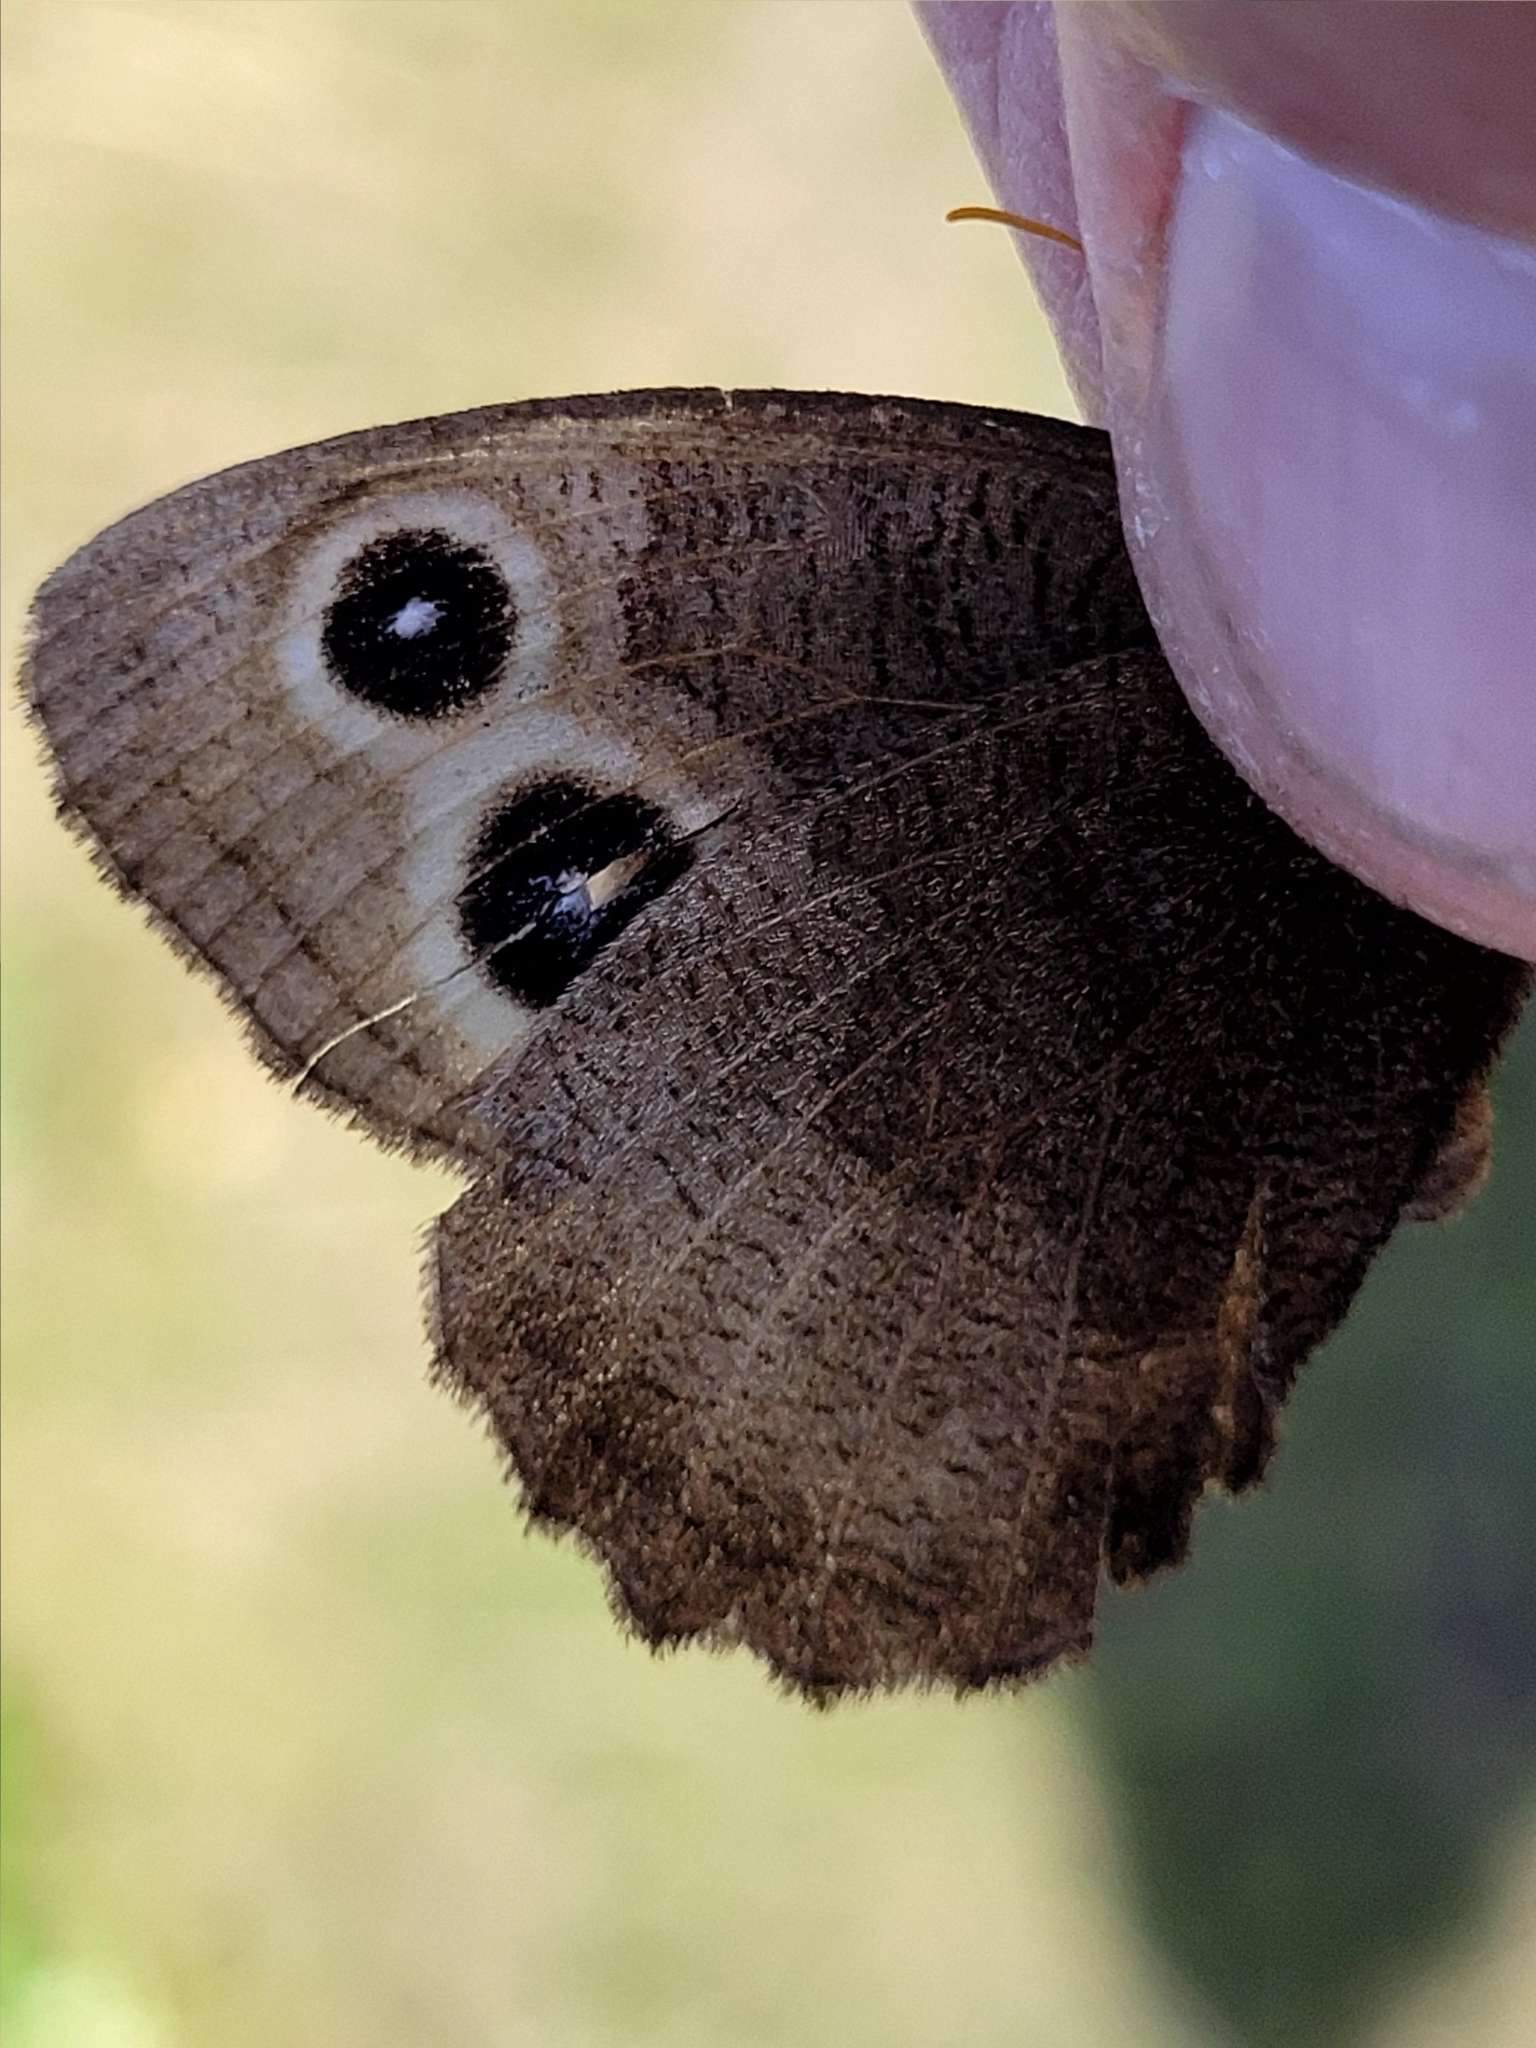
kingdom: Animalia
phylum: Arthropoda
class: Insecta
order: Lepidoptera
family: Nymphalidae
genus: Cercyonis
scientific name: Cercyonis pegala
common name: Common wood-nymph
